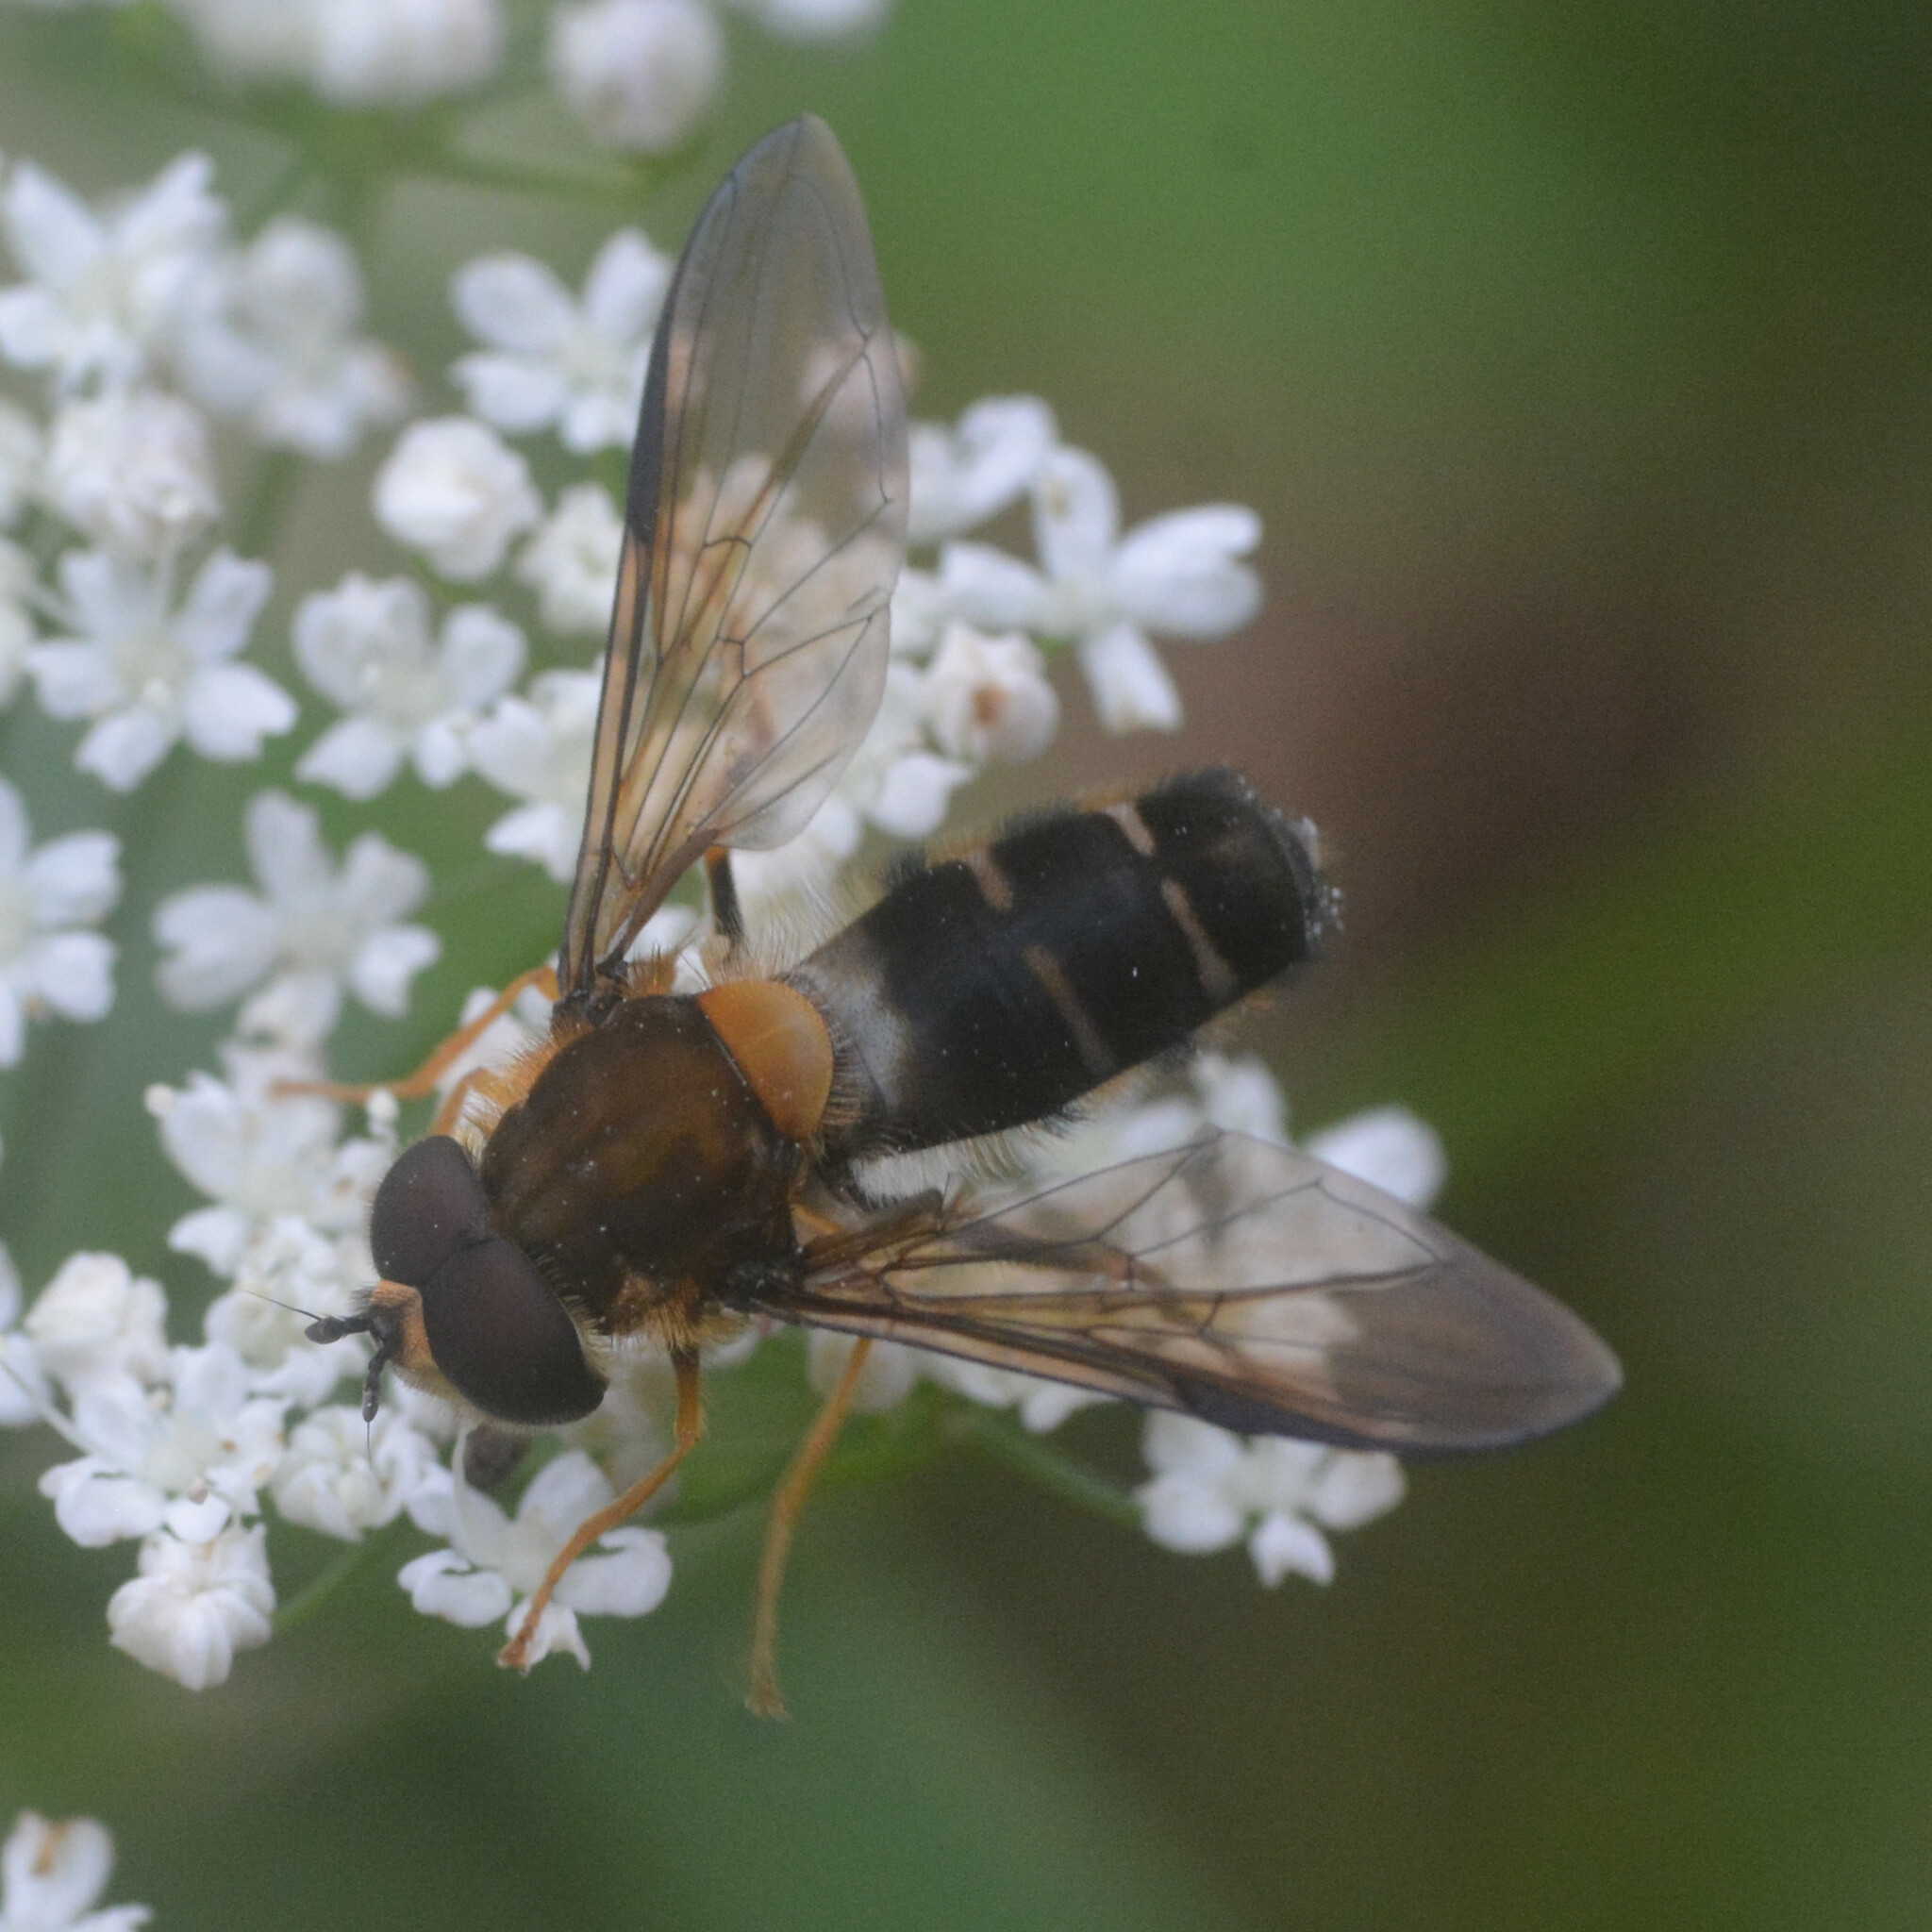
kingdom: Animalia
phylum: Arthropoda
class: Insecta
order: Diptera
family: Syrphidae
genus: Leucozona
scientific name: Leucozona glaucia
